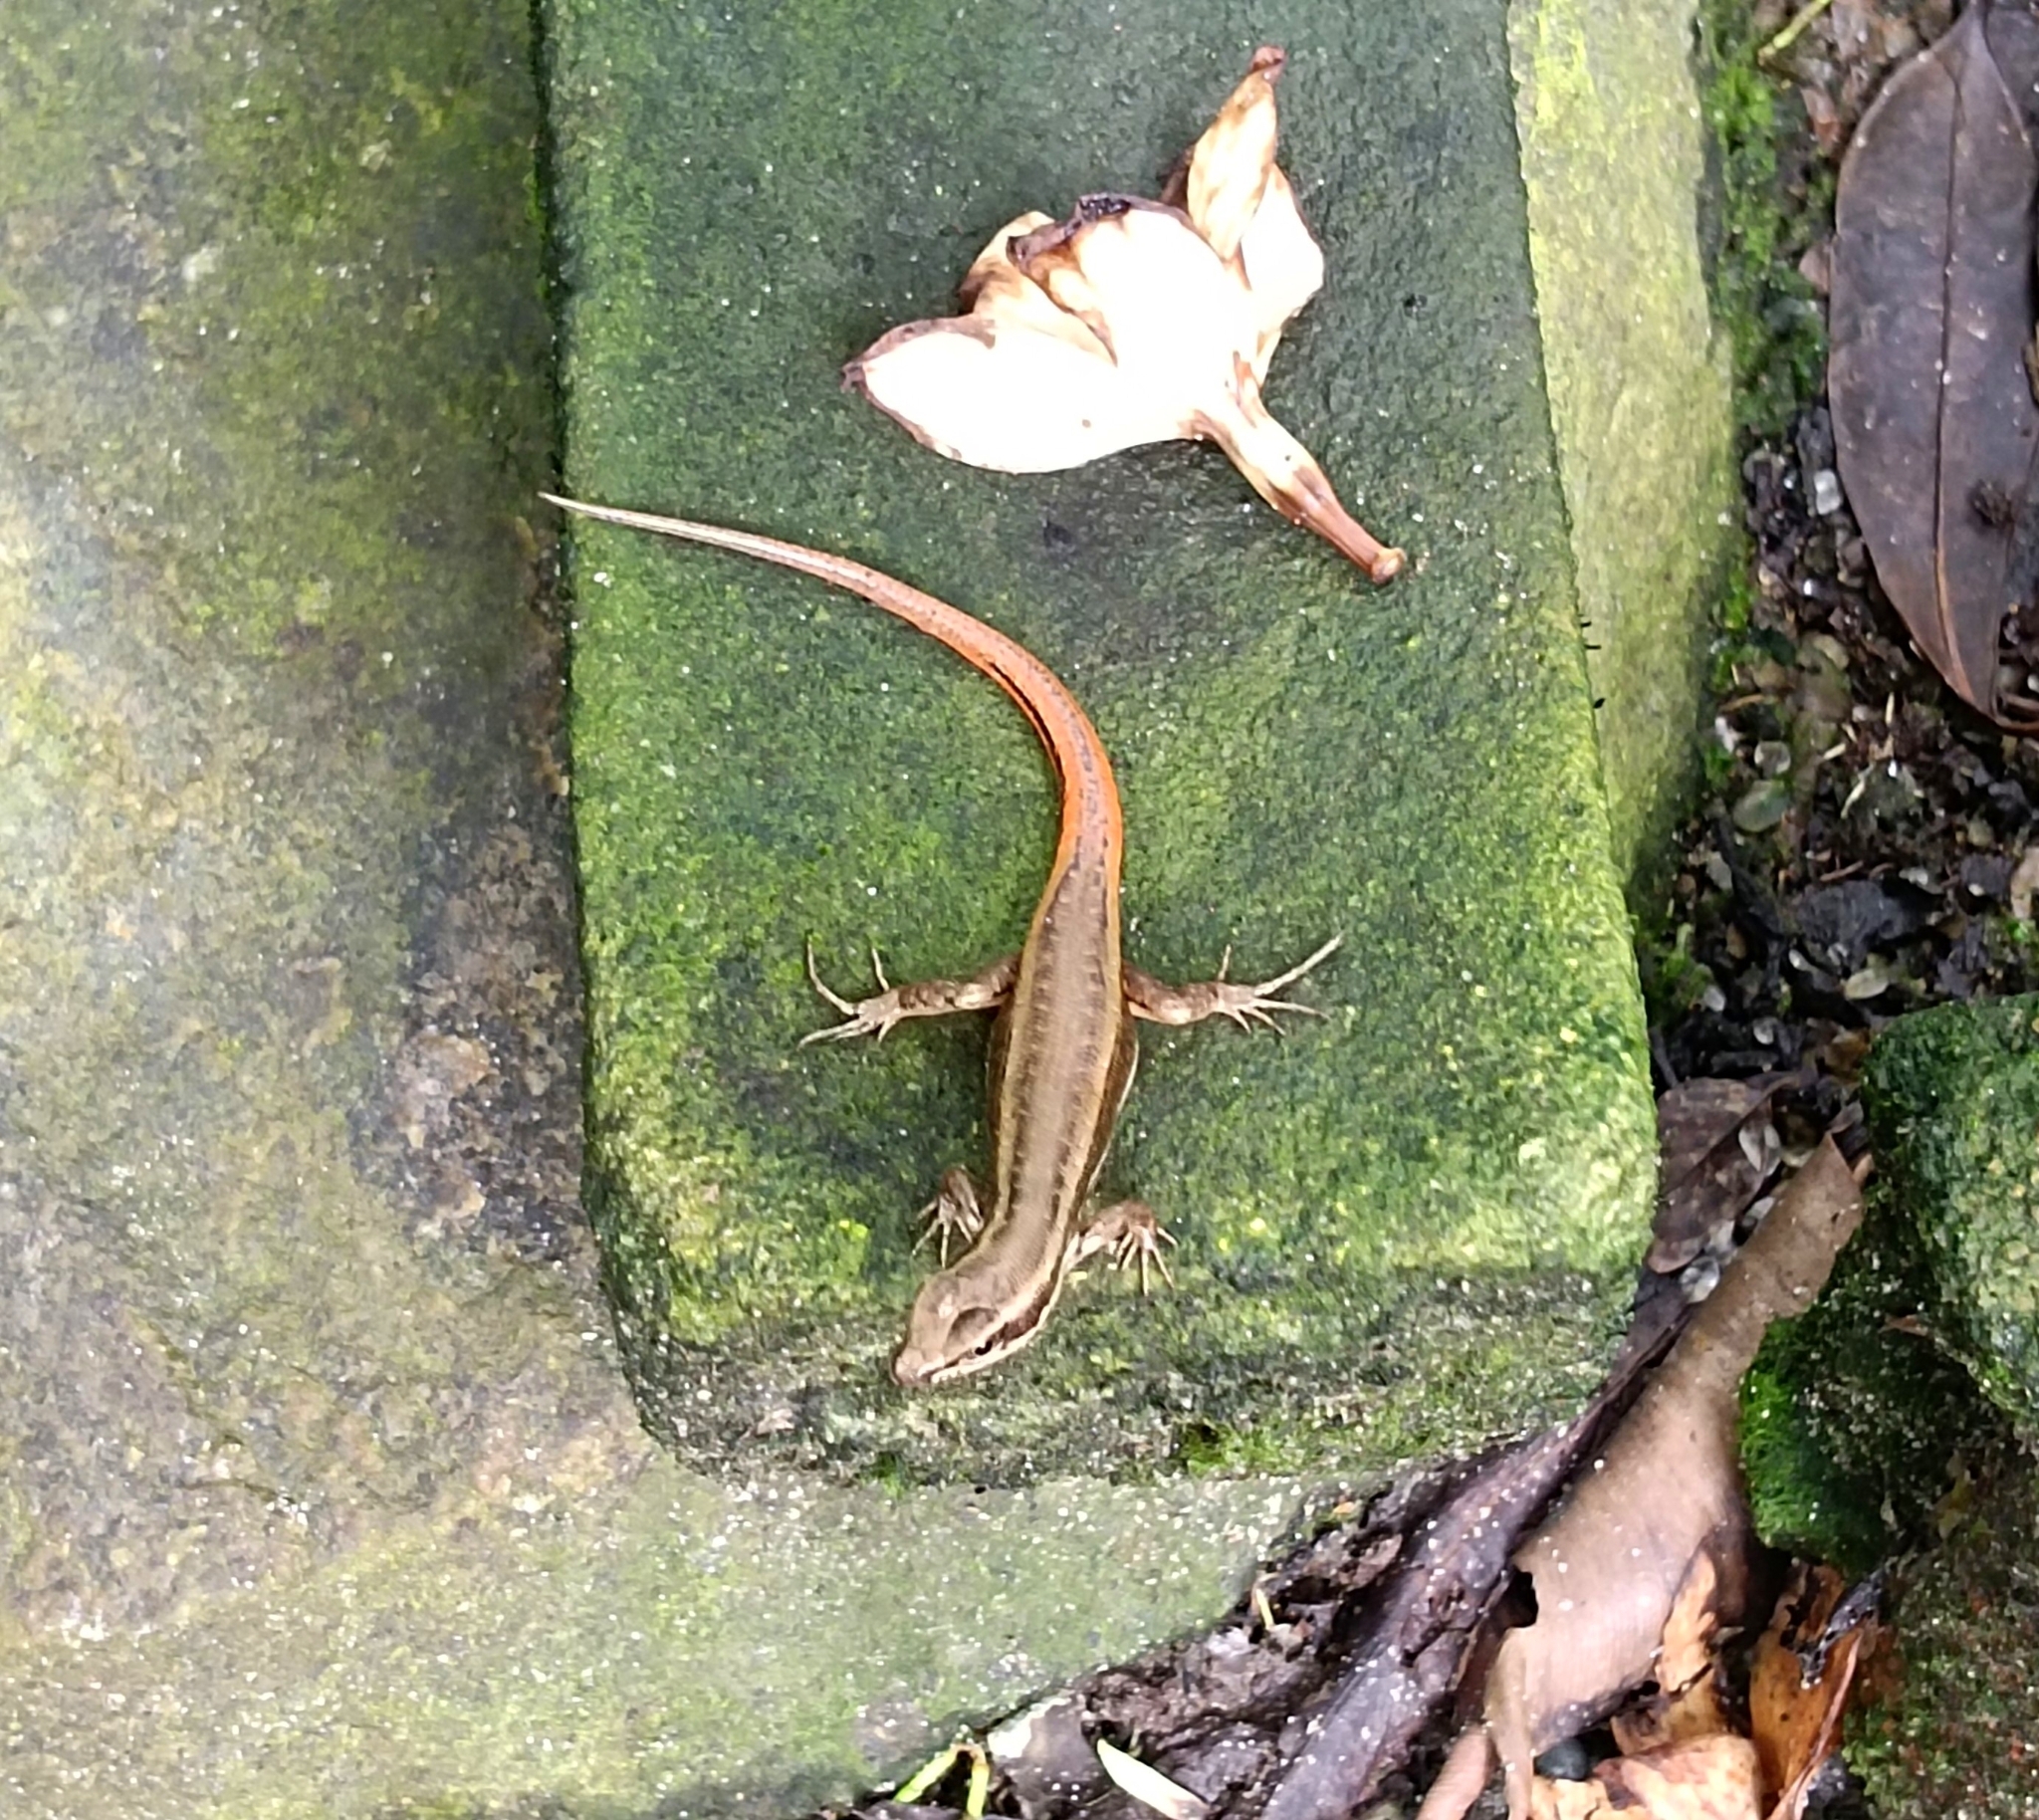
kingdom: Animalia
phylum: Chordata
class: Squamata
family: Scincidae
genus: Sphenomorphus
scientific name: Sphenomorphus dussumieri
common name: Dussumier's forest skink
